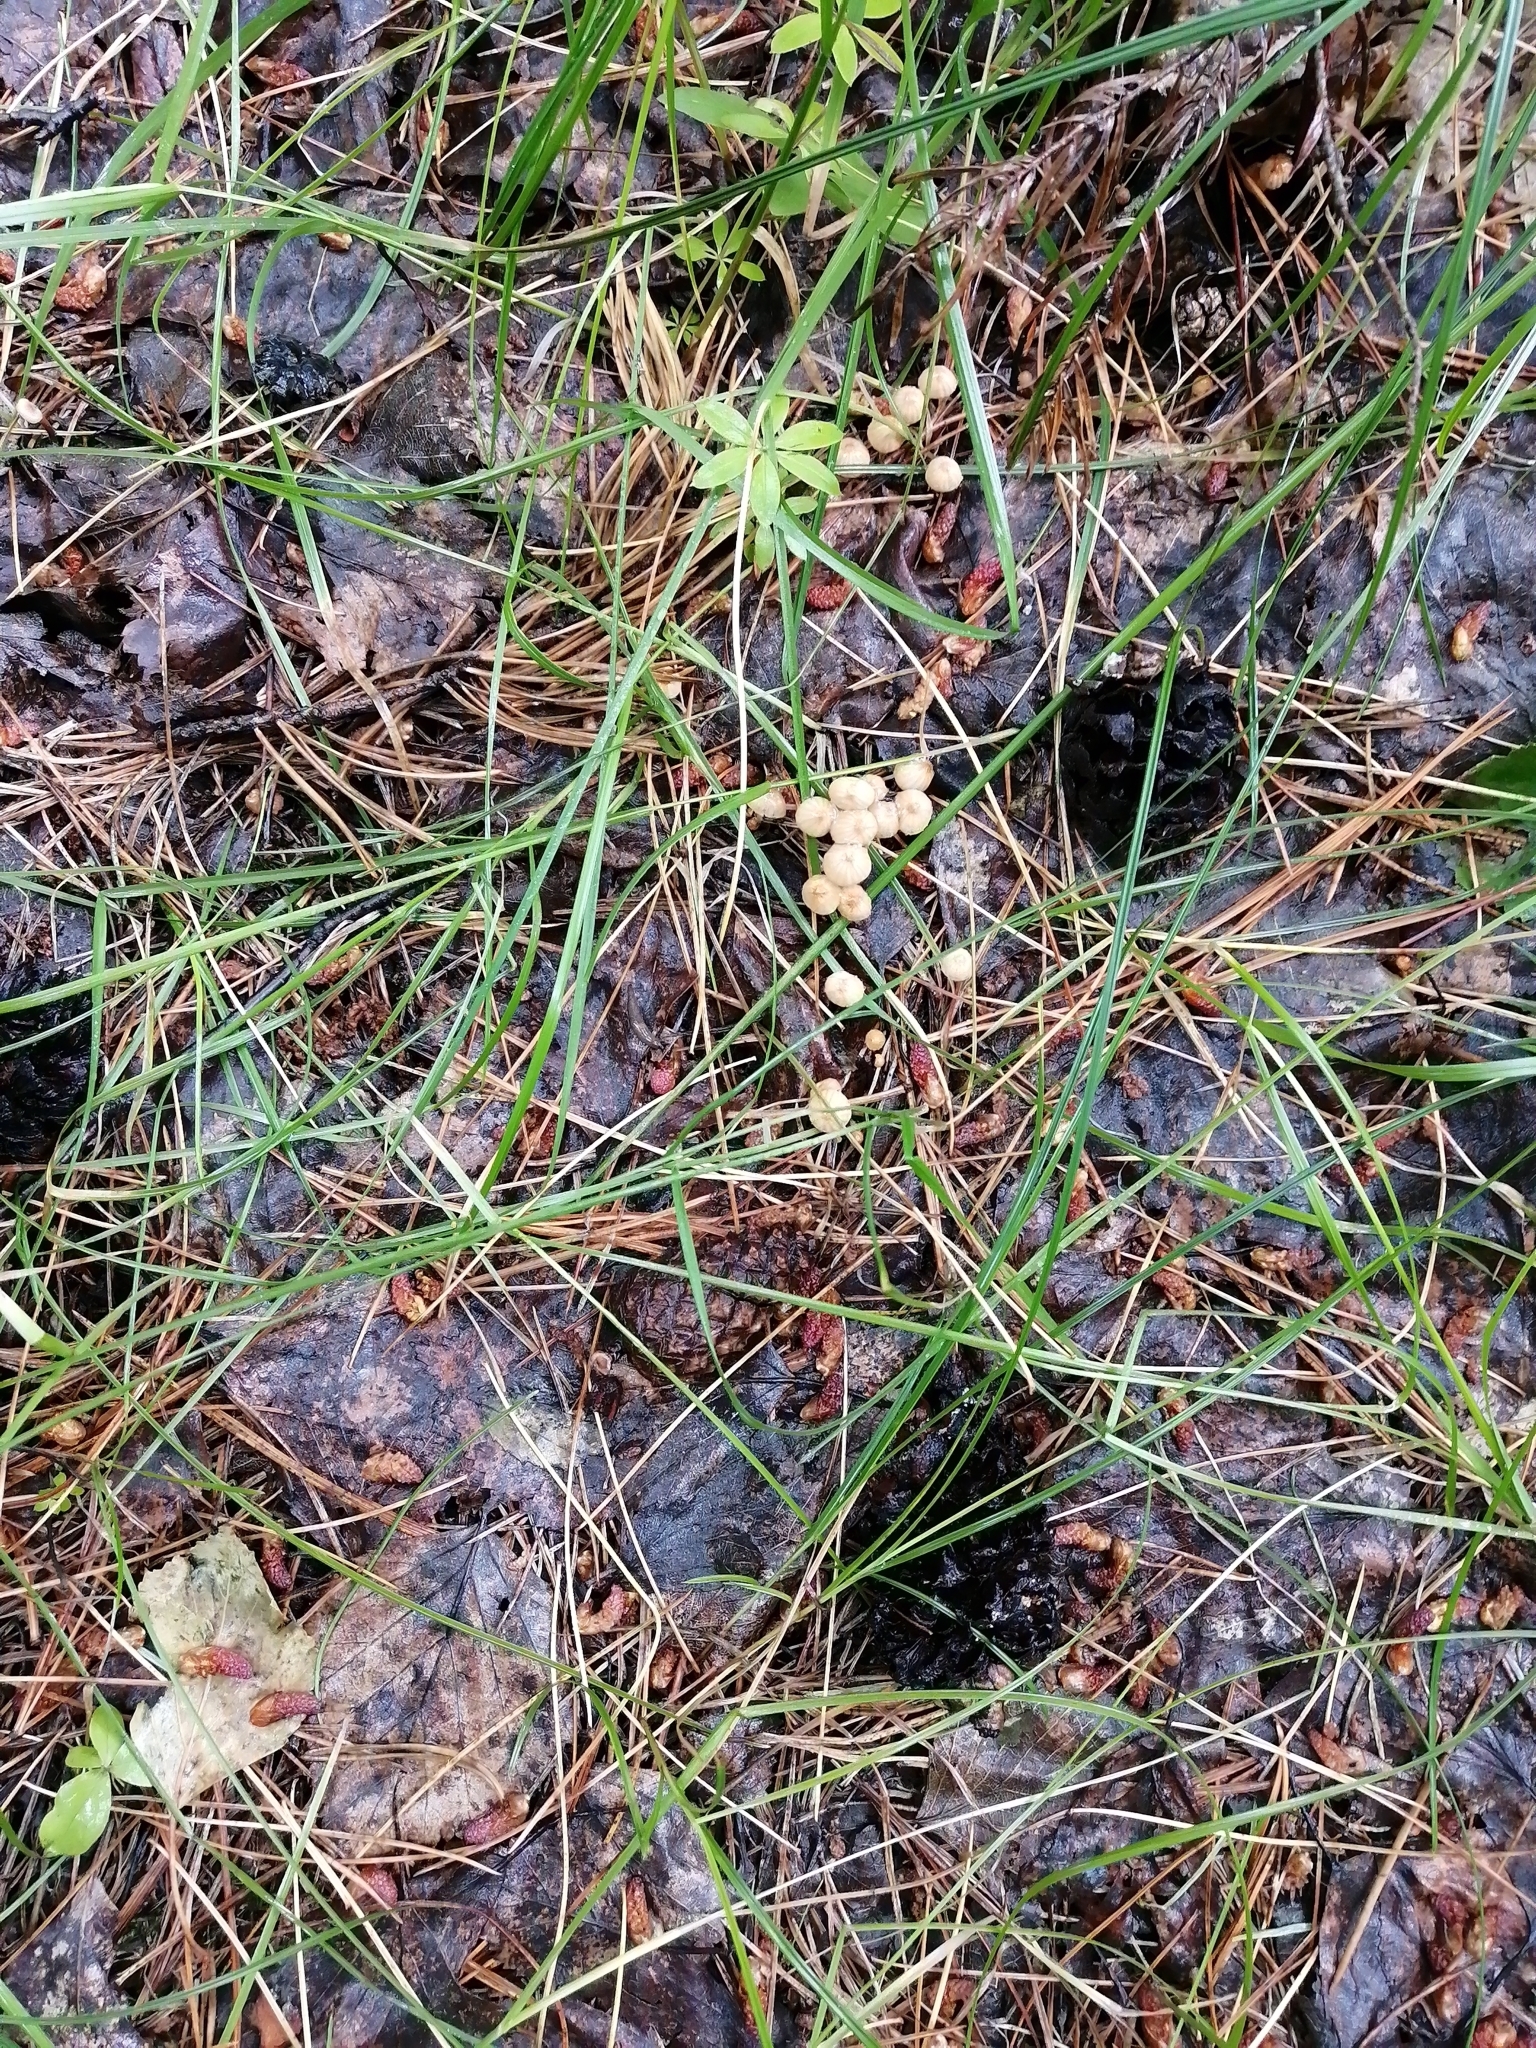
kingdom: Fungi
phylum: Basidiomycota
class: Agaricomycetes
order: Agaricales
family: Marasmiaceae
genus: Marasmius
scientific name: Marasmius siccus
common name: Orange pinwheel
